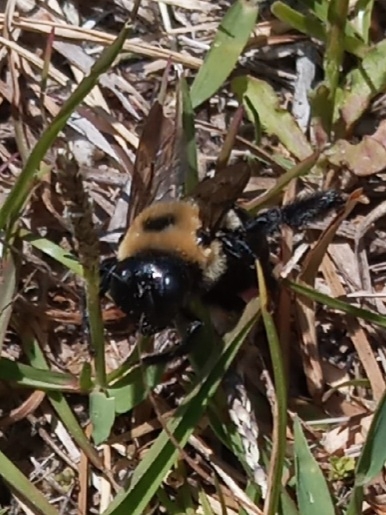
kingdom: Animalia
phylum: Arthropoda
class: Insecta
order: Hymenoptera
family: Apidae
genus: Xylocopa
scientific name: Xylocopa virginica
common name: Carpenter bee
